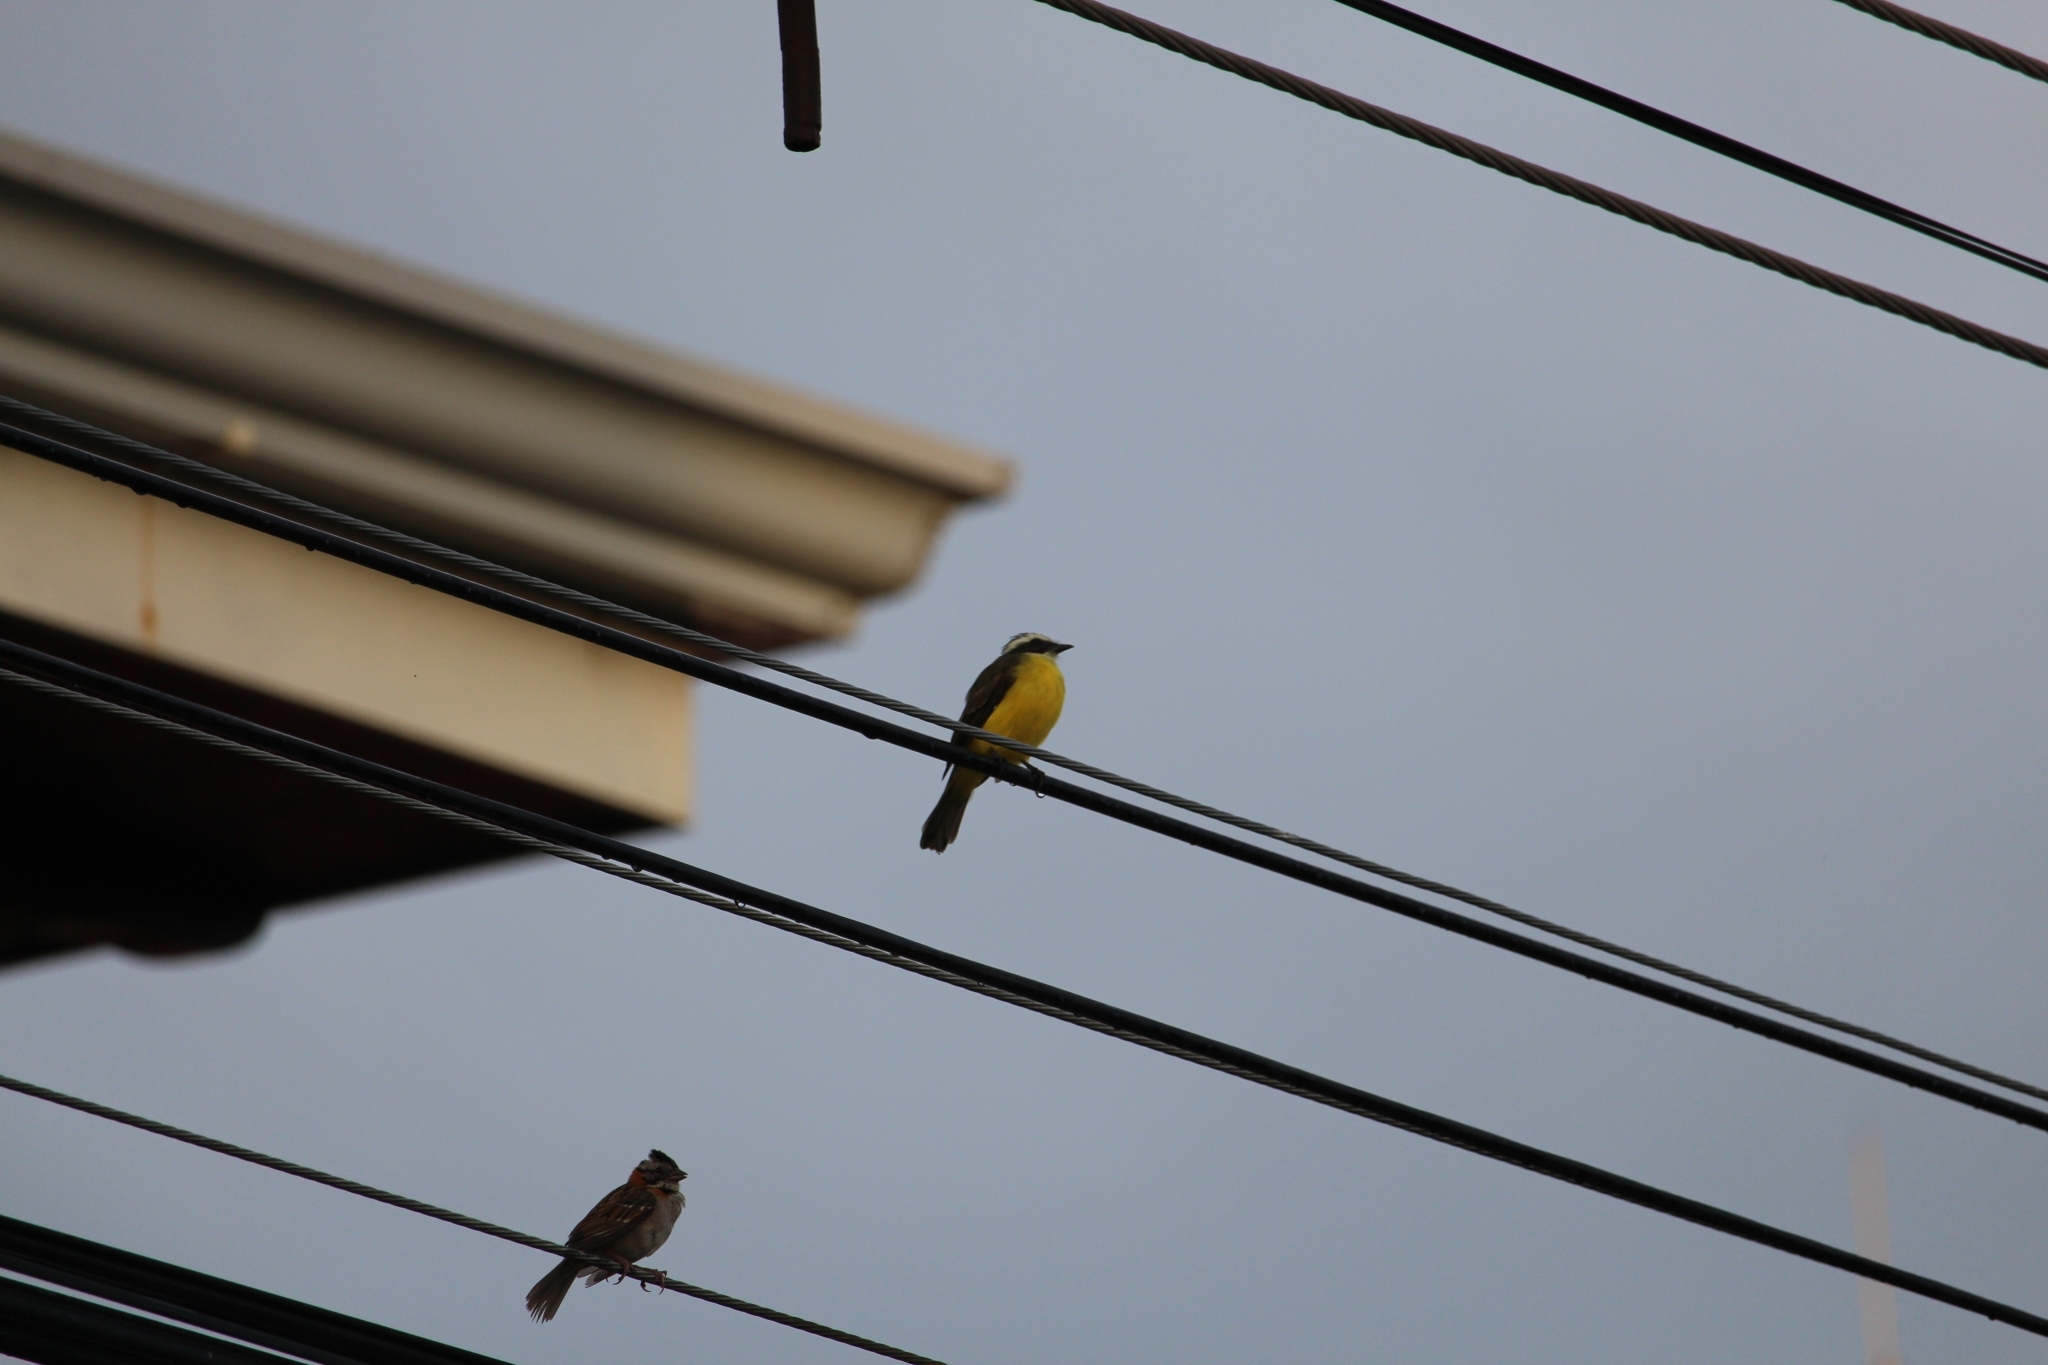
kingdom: Animalia
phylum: Chordata
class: Aves
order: Passeriformes
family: Tyrannidae
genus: Myiozetetes
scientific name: Myiozetetes similis
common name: Social flycatcher
